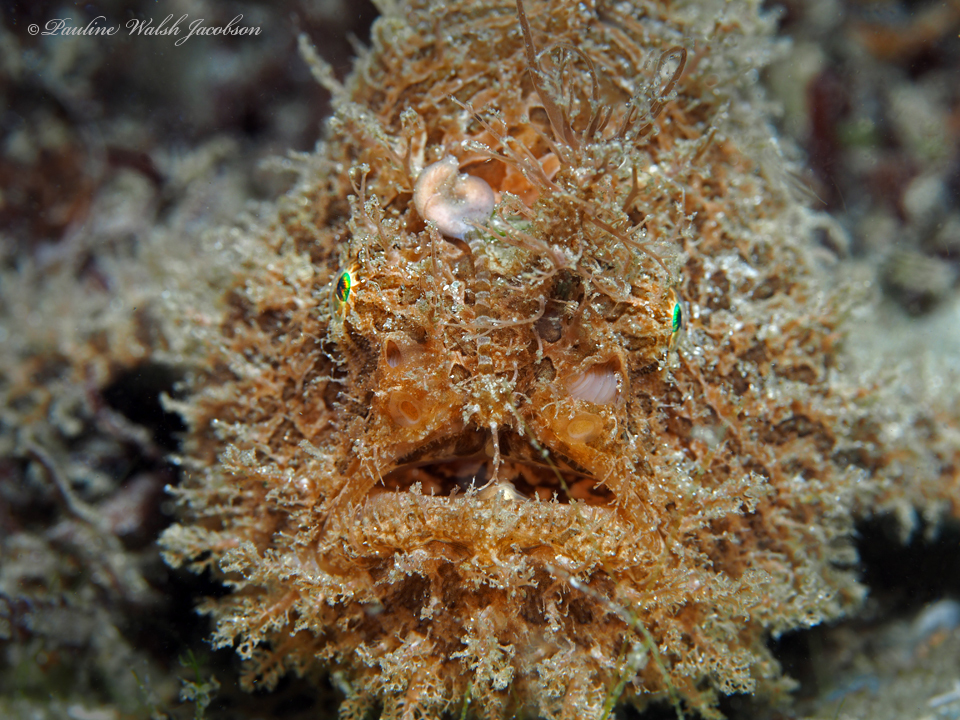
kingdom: Animalia
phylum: Chordata
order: Lophiiformes
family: Antennariidae
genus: Antennarius
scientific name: Antennarius striatus
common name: Striated frogfish
